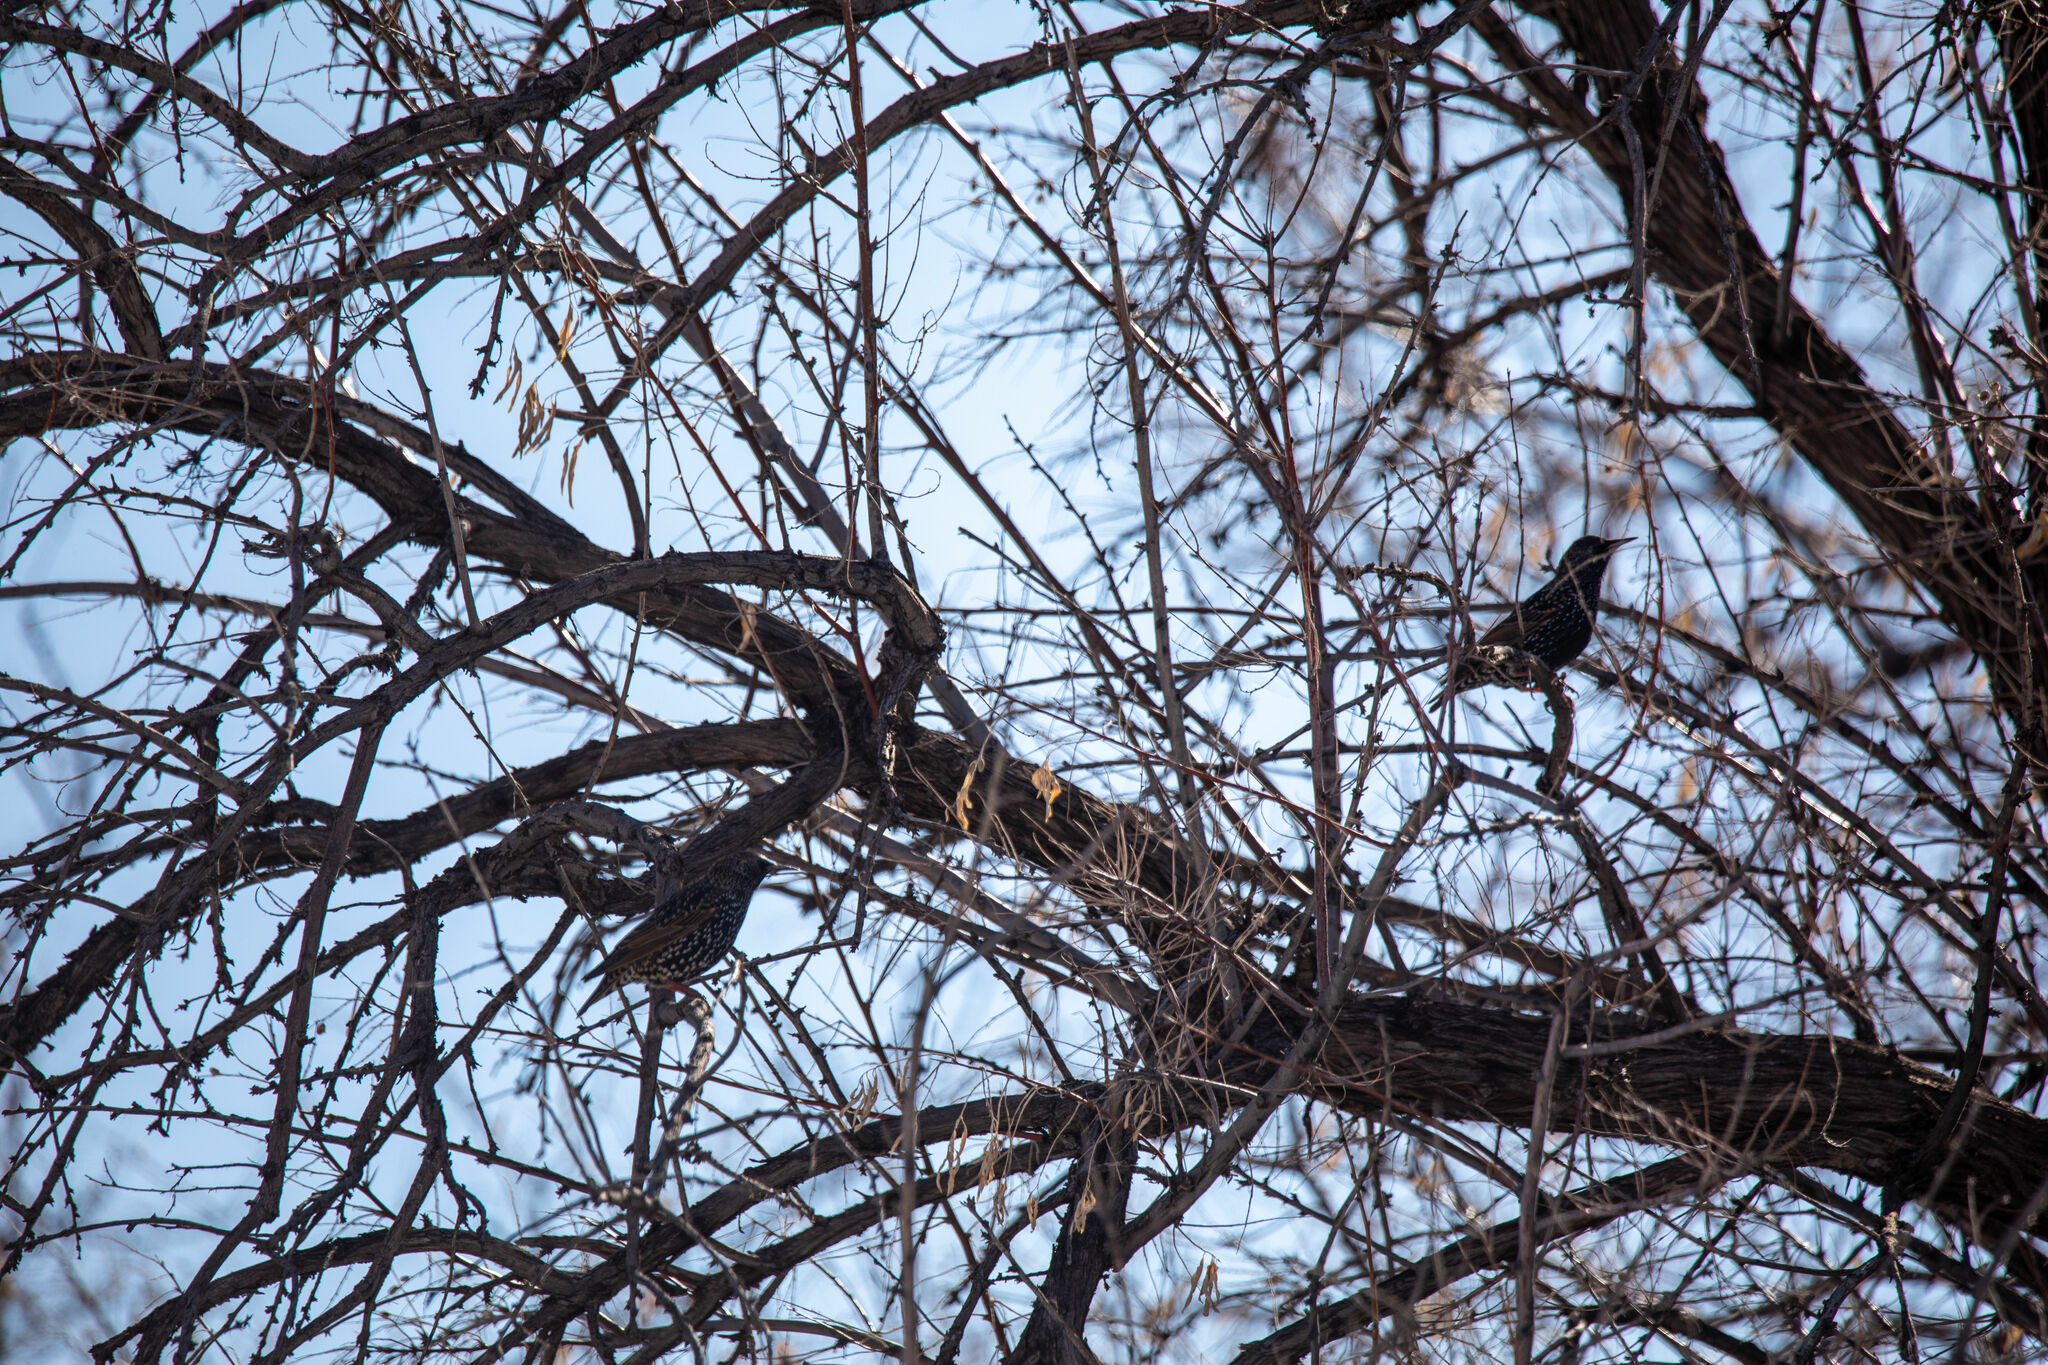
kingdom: Animalia
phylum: Chordata
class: Aves
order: Passeriformes
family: Sturnidae
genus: Sturnus
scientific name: Sturnus vulgaris
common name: Common starling
